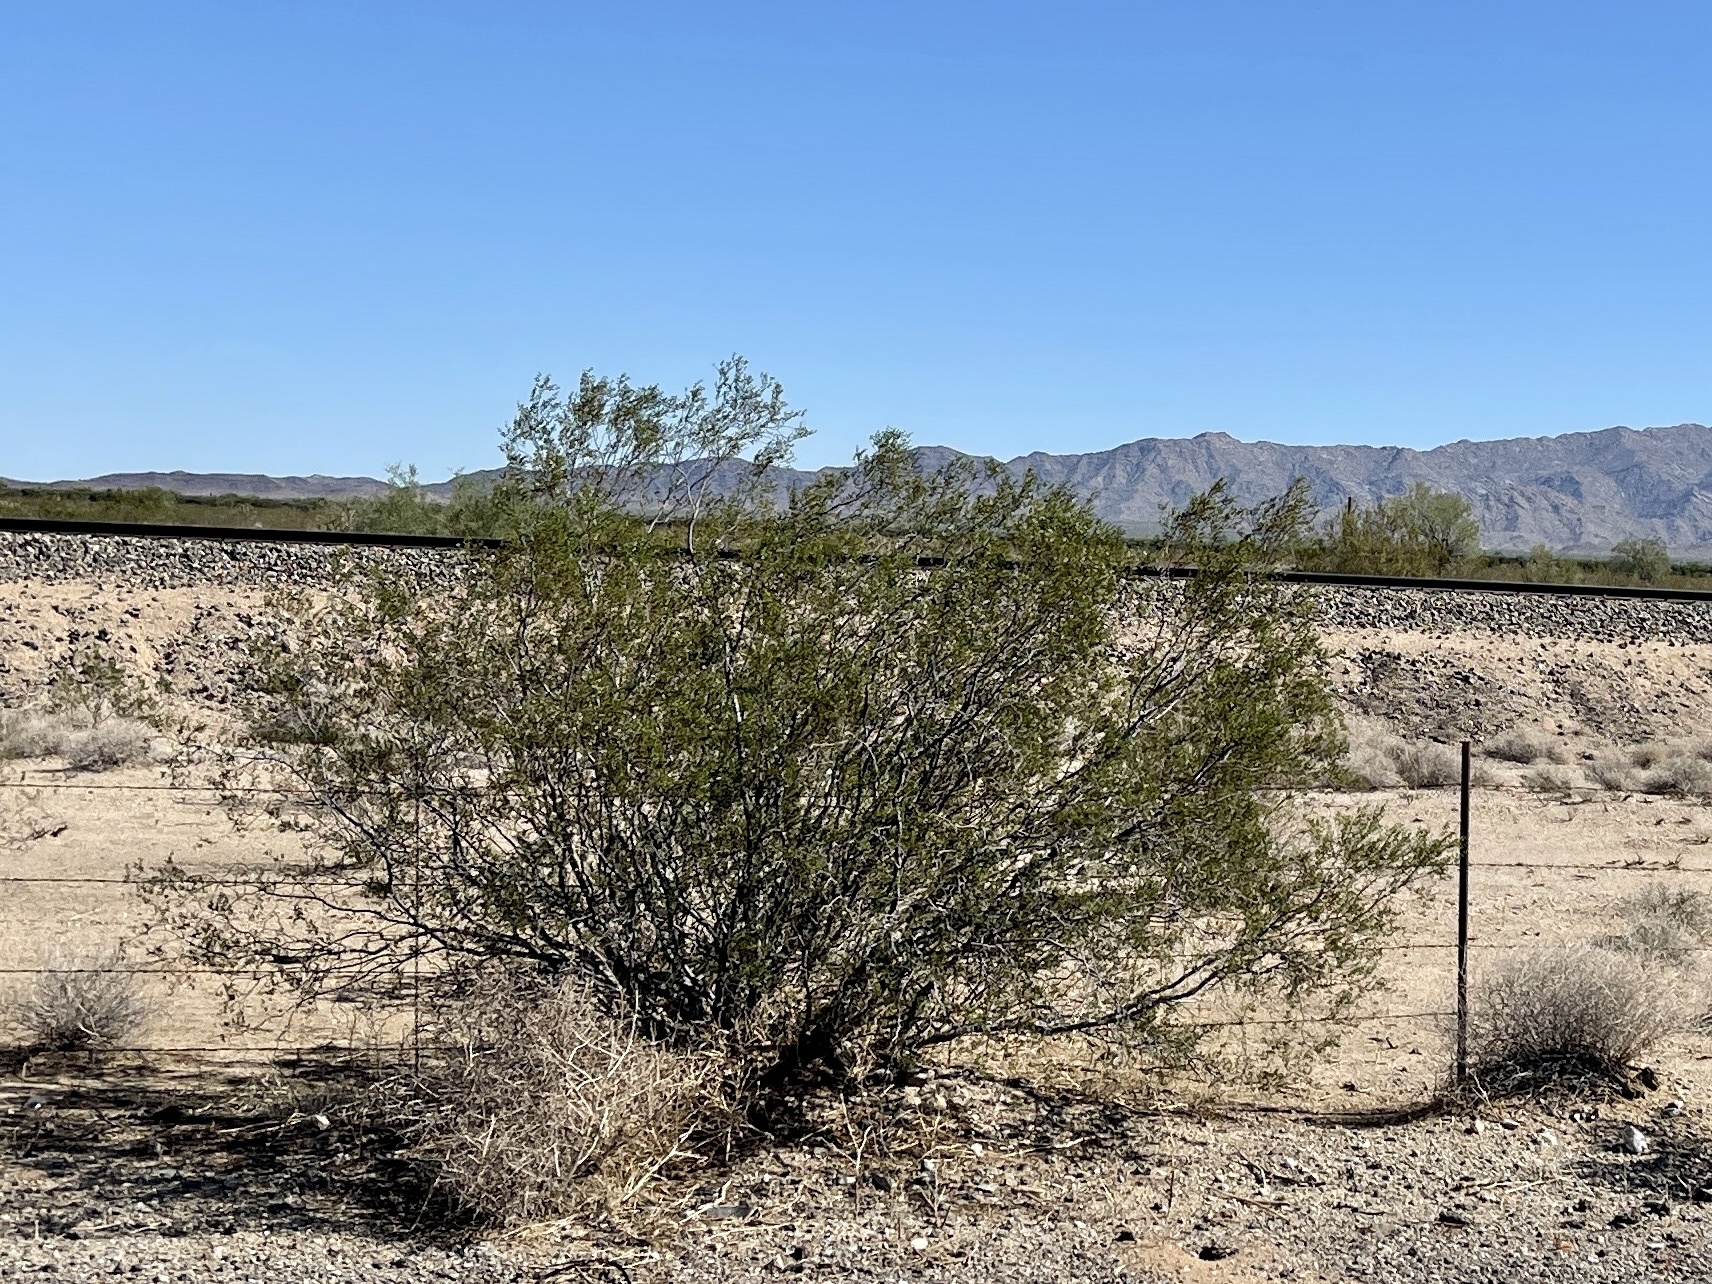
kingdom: Plantae
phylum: Tracheophyta
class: Magnoliopsida
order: Zygophyllales
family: Zygophyllaceae
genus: Larrea
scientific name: Larrea tridentata
